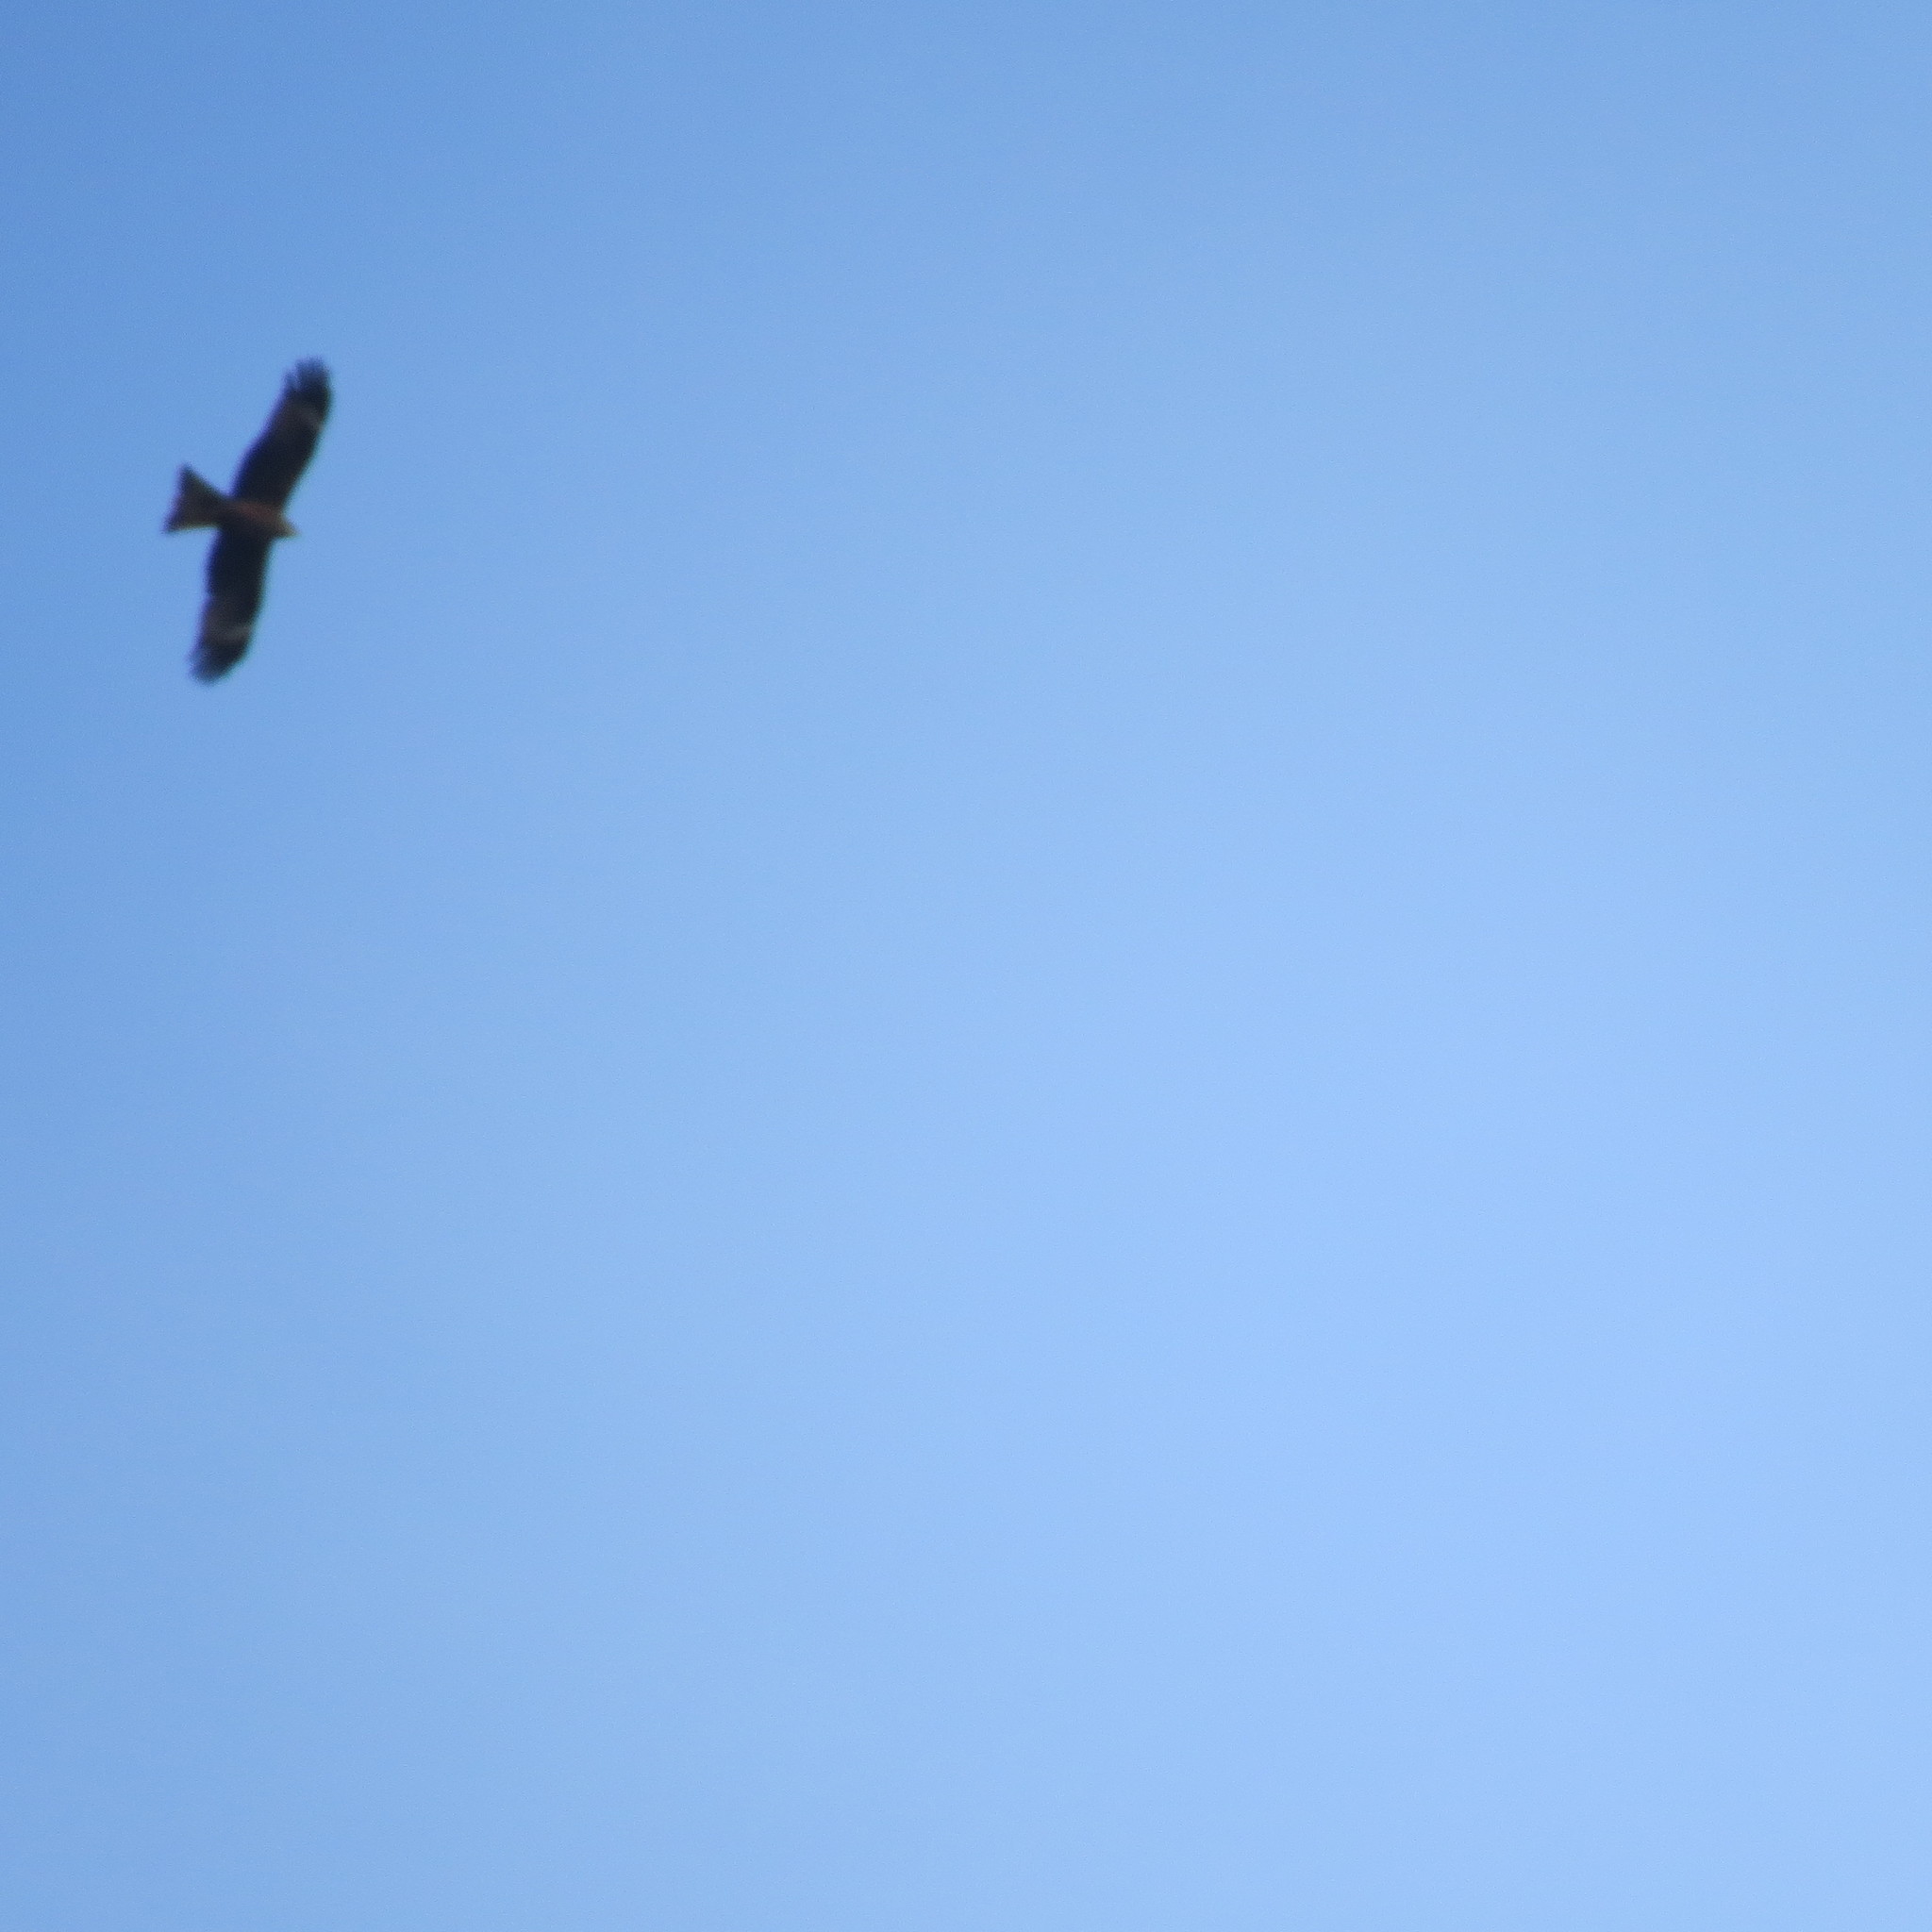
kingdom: Animalia
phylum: Chordata
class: Aves
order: Accipitriformes
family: Accipitridae
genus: Milvus
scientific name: Milvus migrans
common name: Black kite
